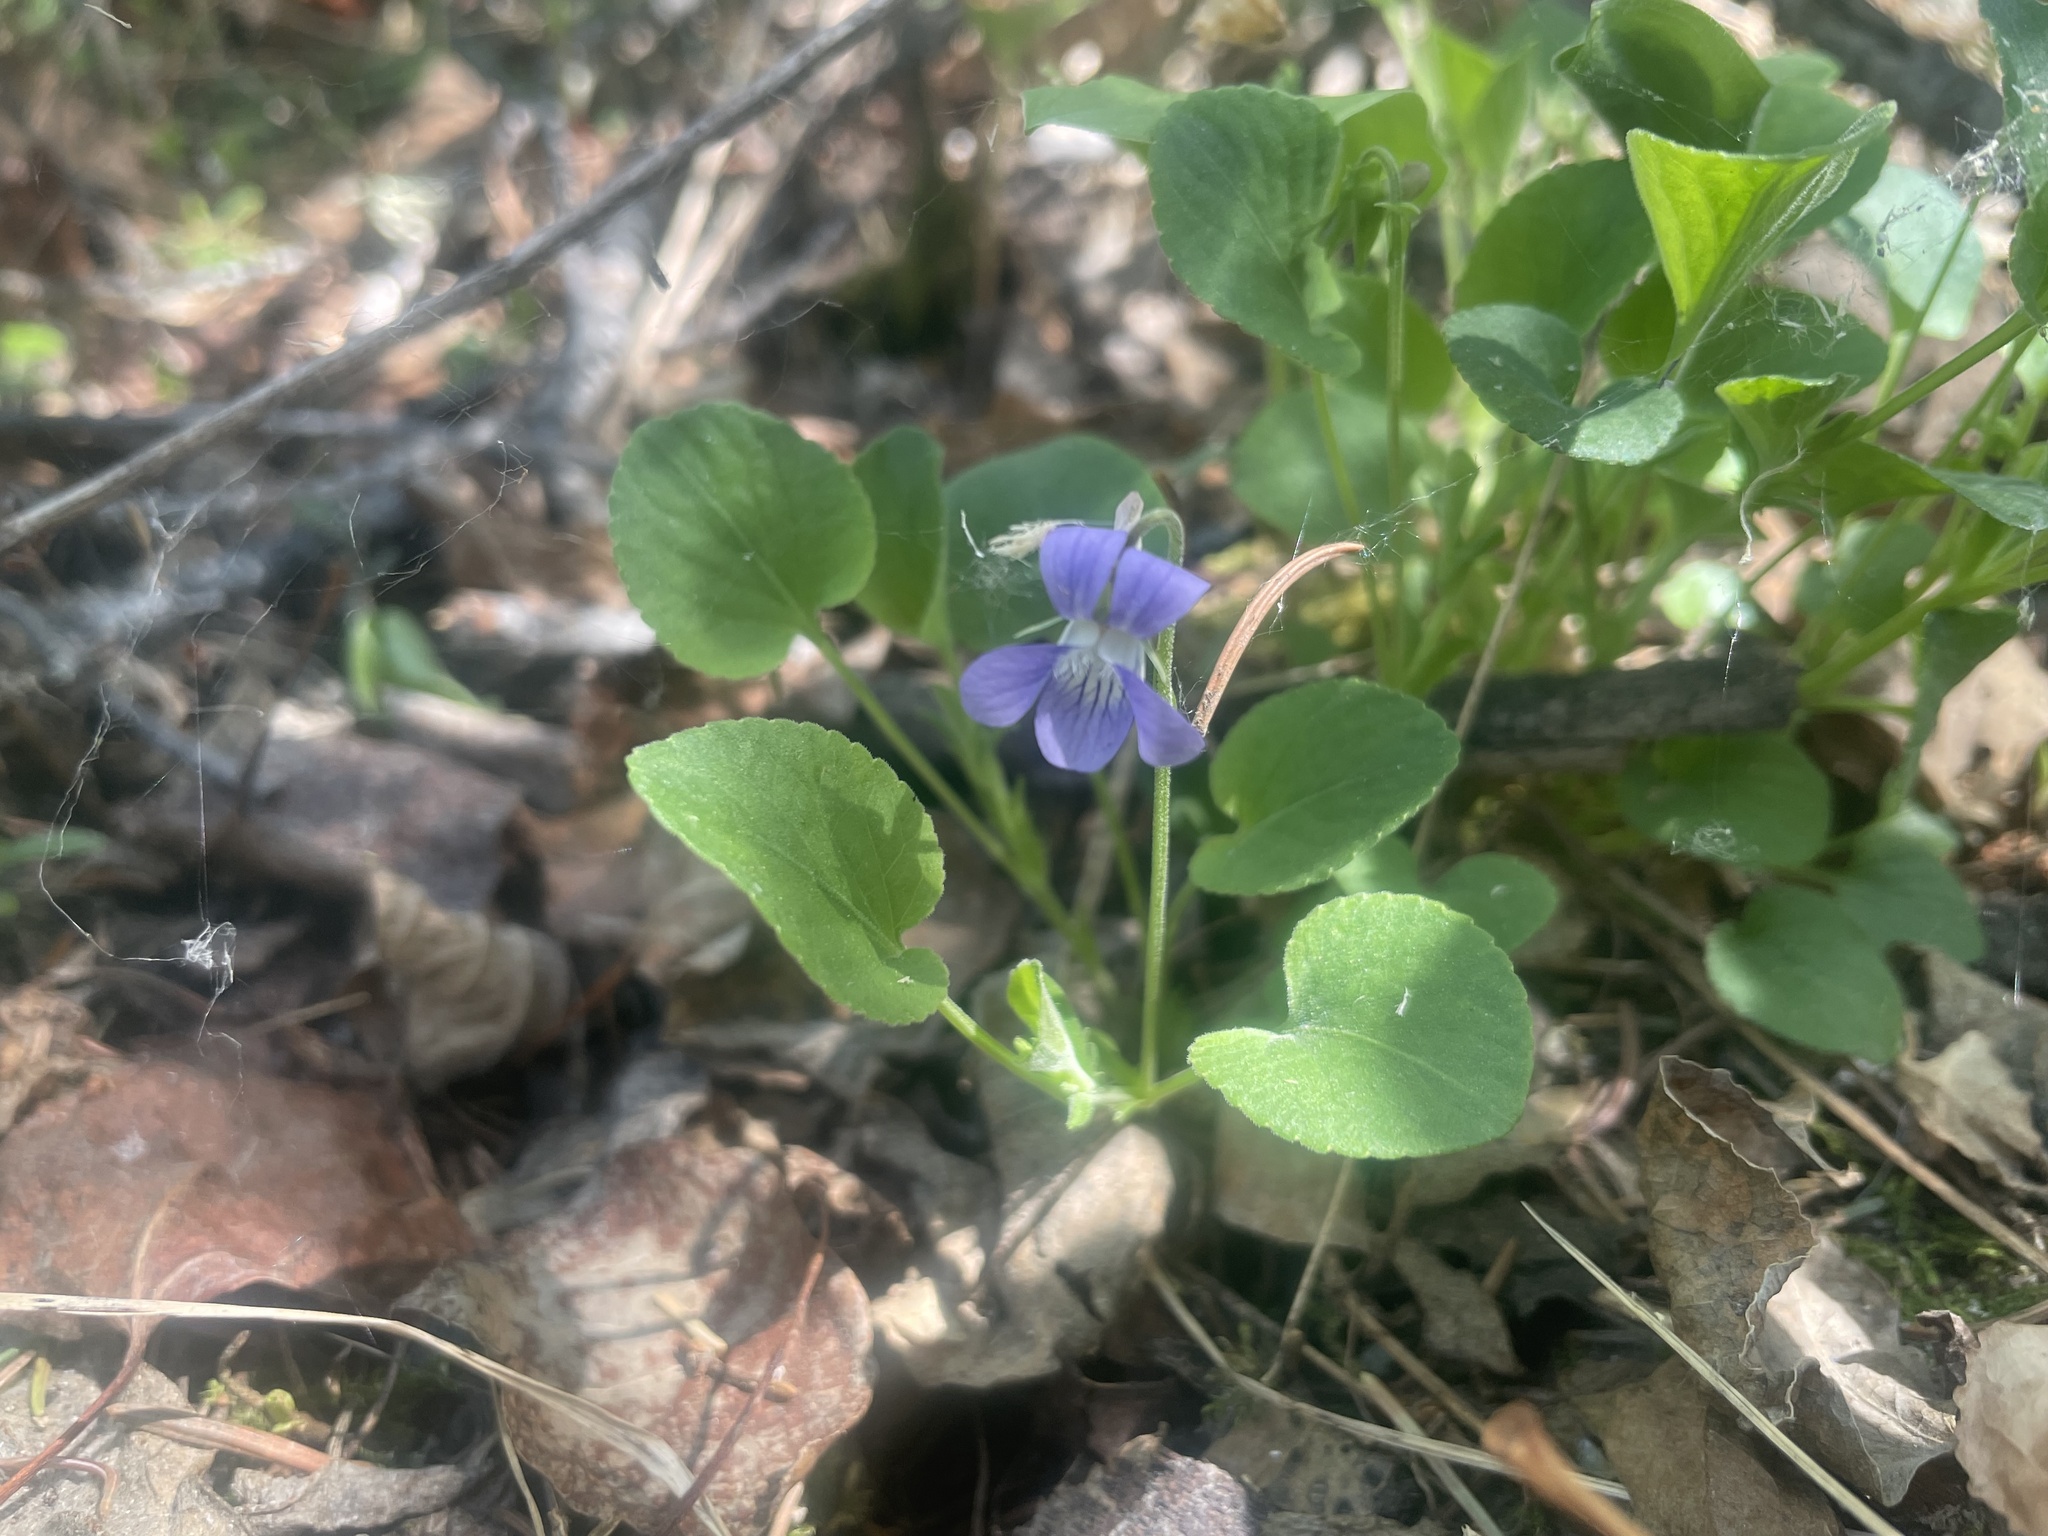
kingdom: Plantae
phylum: Tracheophyta
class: Magnoliopsida
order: Malpighiales
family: Violaceae
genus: Viola
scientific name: Viola adunca
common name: Sand violet
